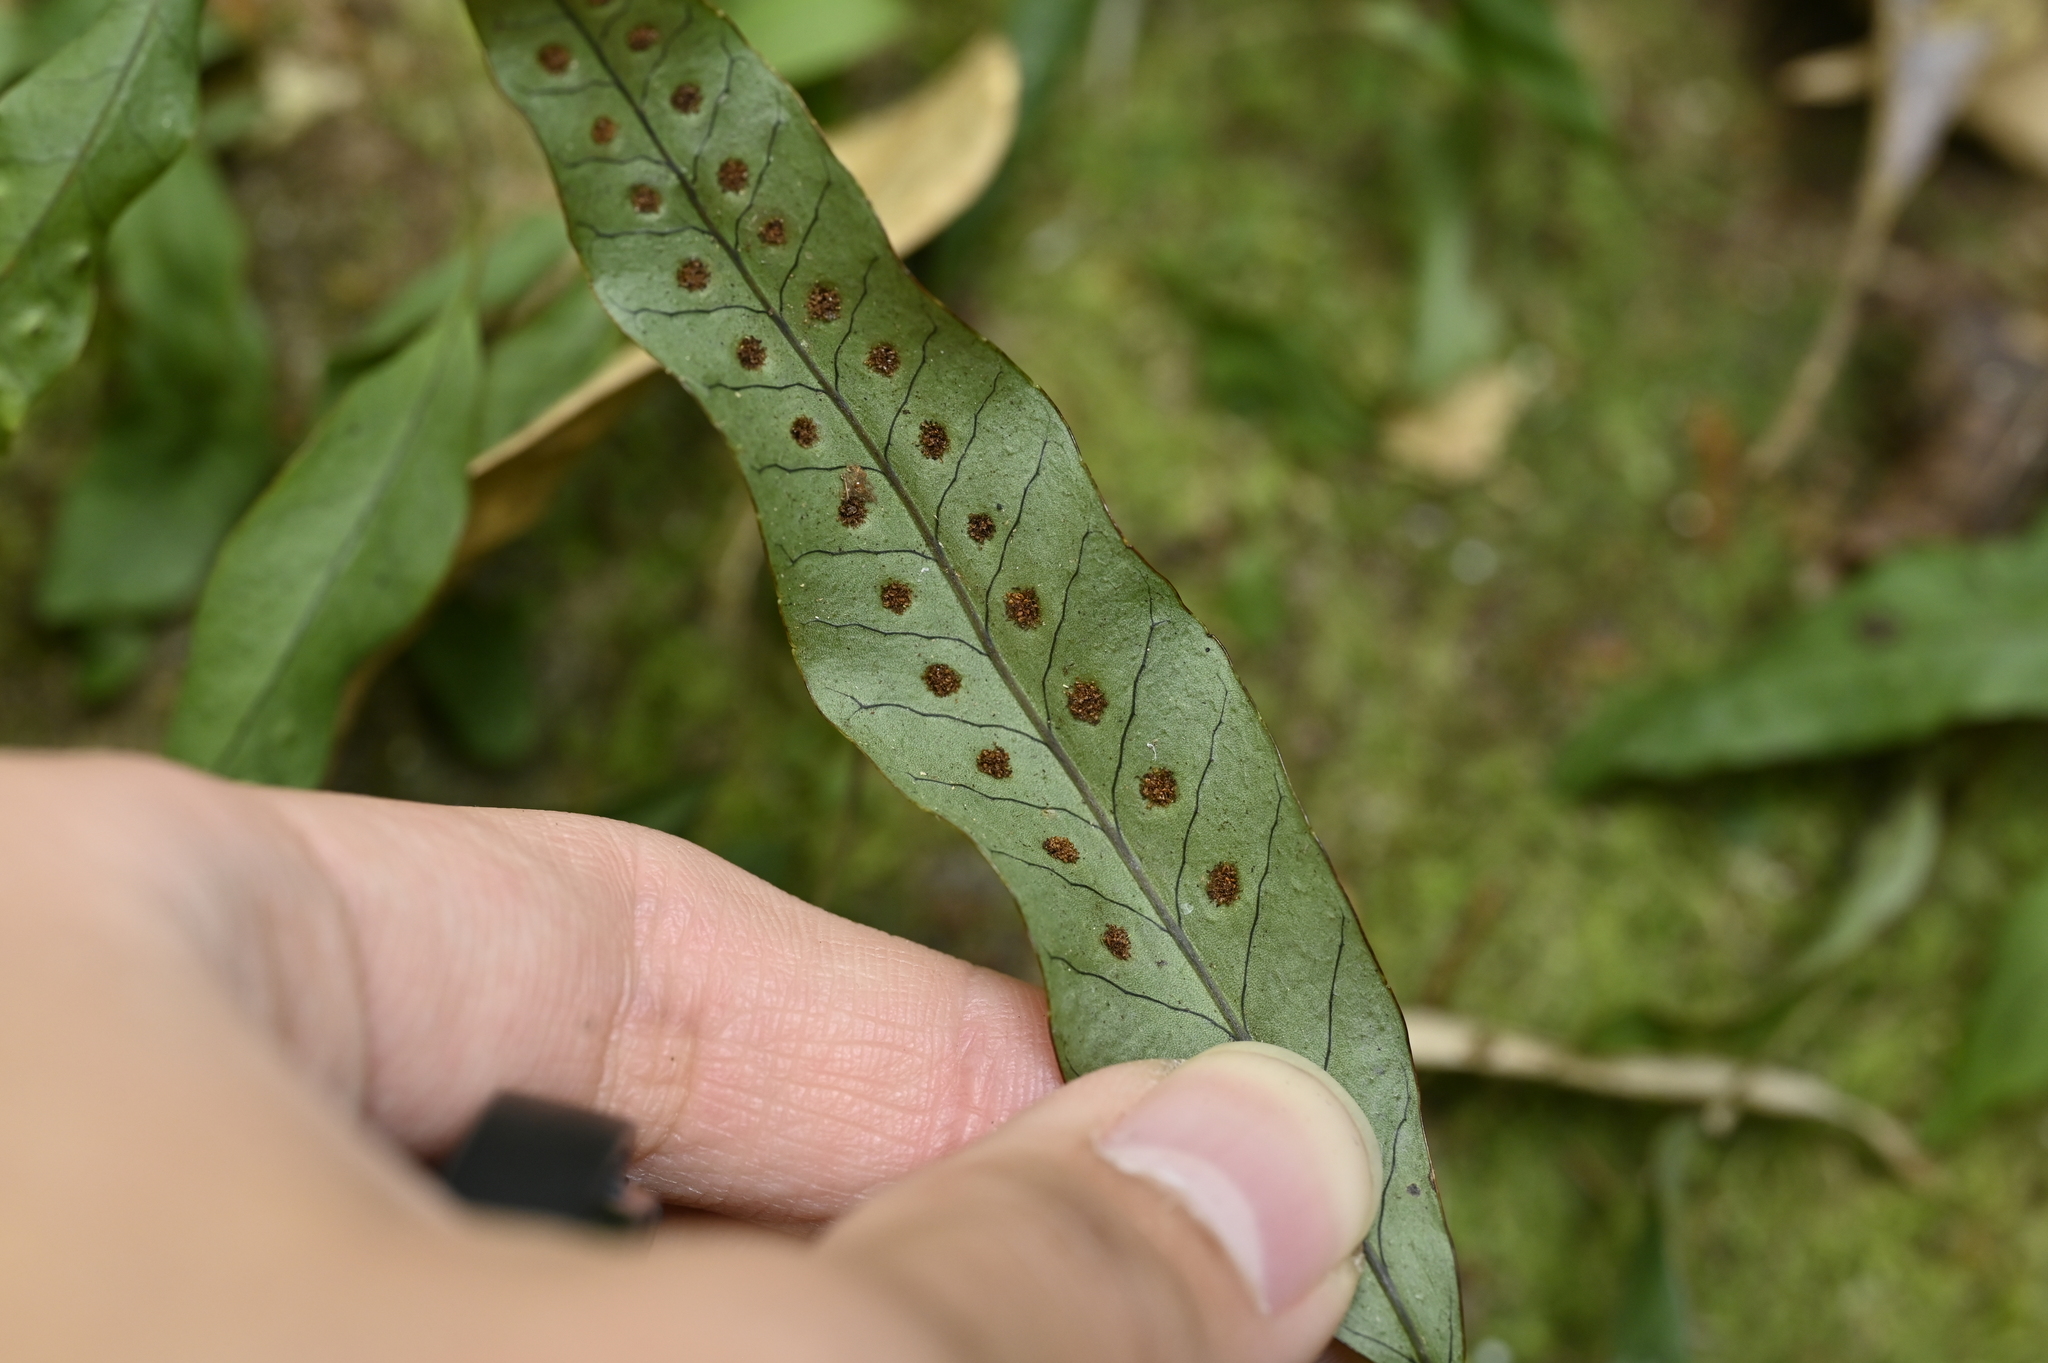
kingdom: Plantae
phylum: Tracheophyta
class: Polypodiopsida
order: Polypodiales
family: Polypodiaceae
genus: Selliguea
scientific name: Selliguea yakushimensis
